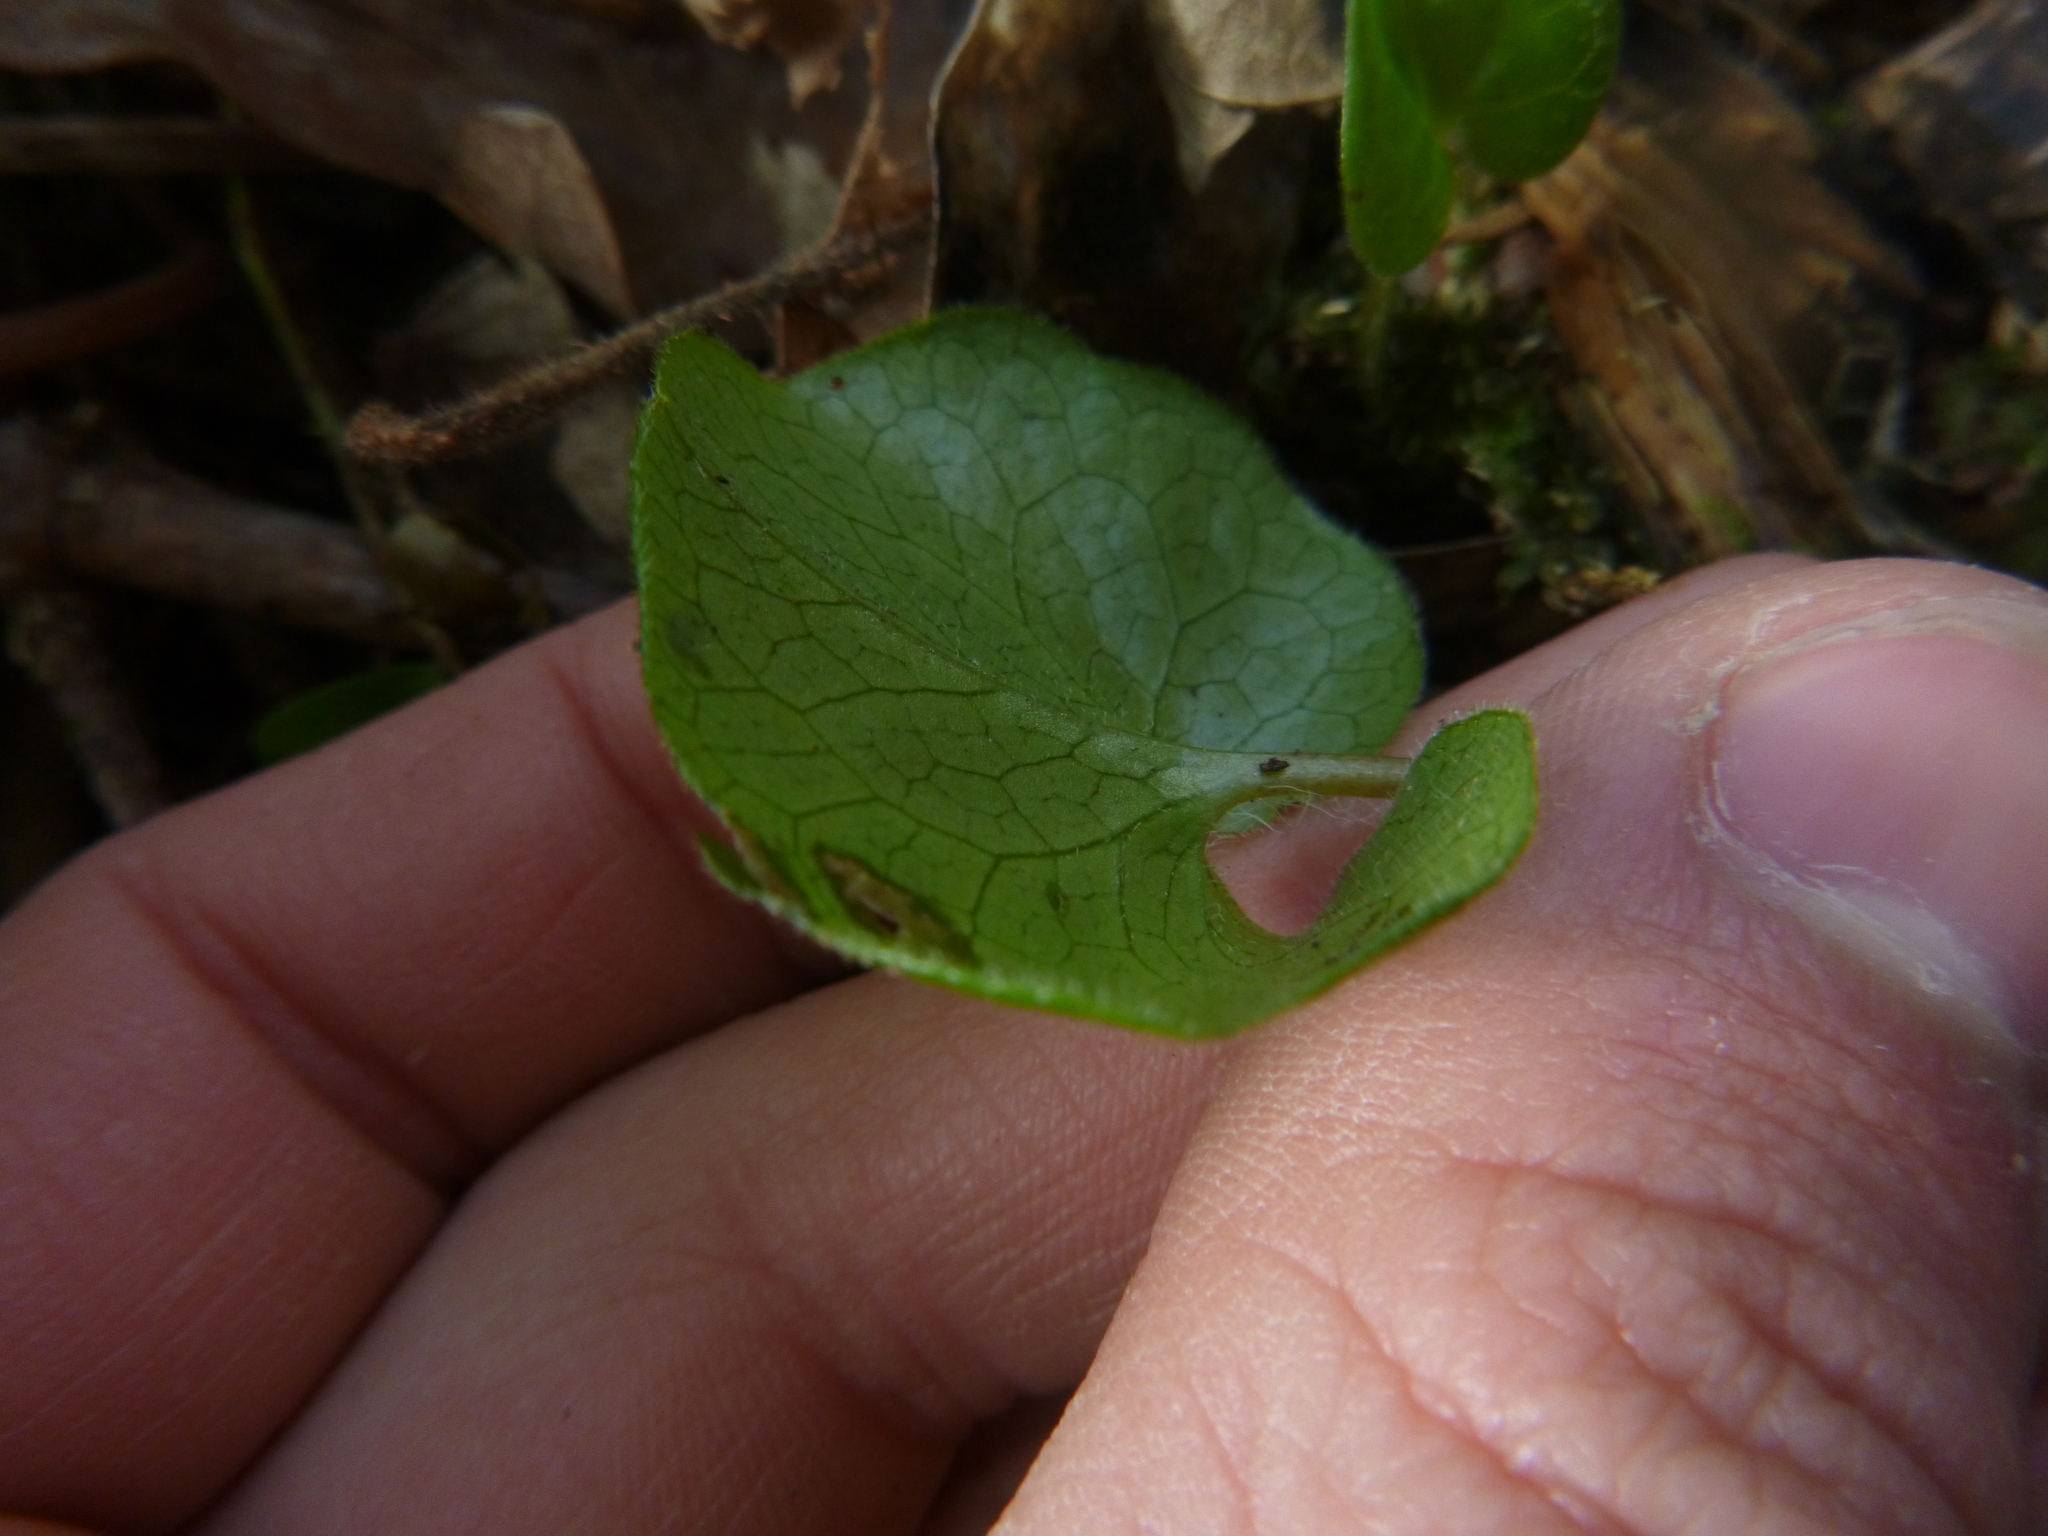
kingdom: Plantae
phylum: Tracheophyta
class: Magnoliopsida
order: Piperales
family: Aristolochiaceae
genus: Asarum
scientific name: Asarum europaeum
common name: Asarabacca
